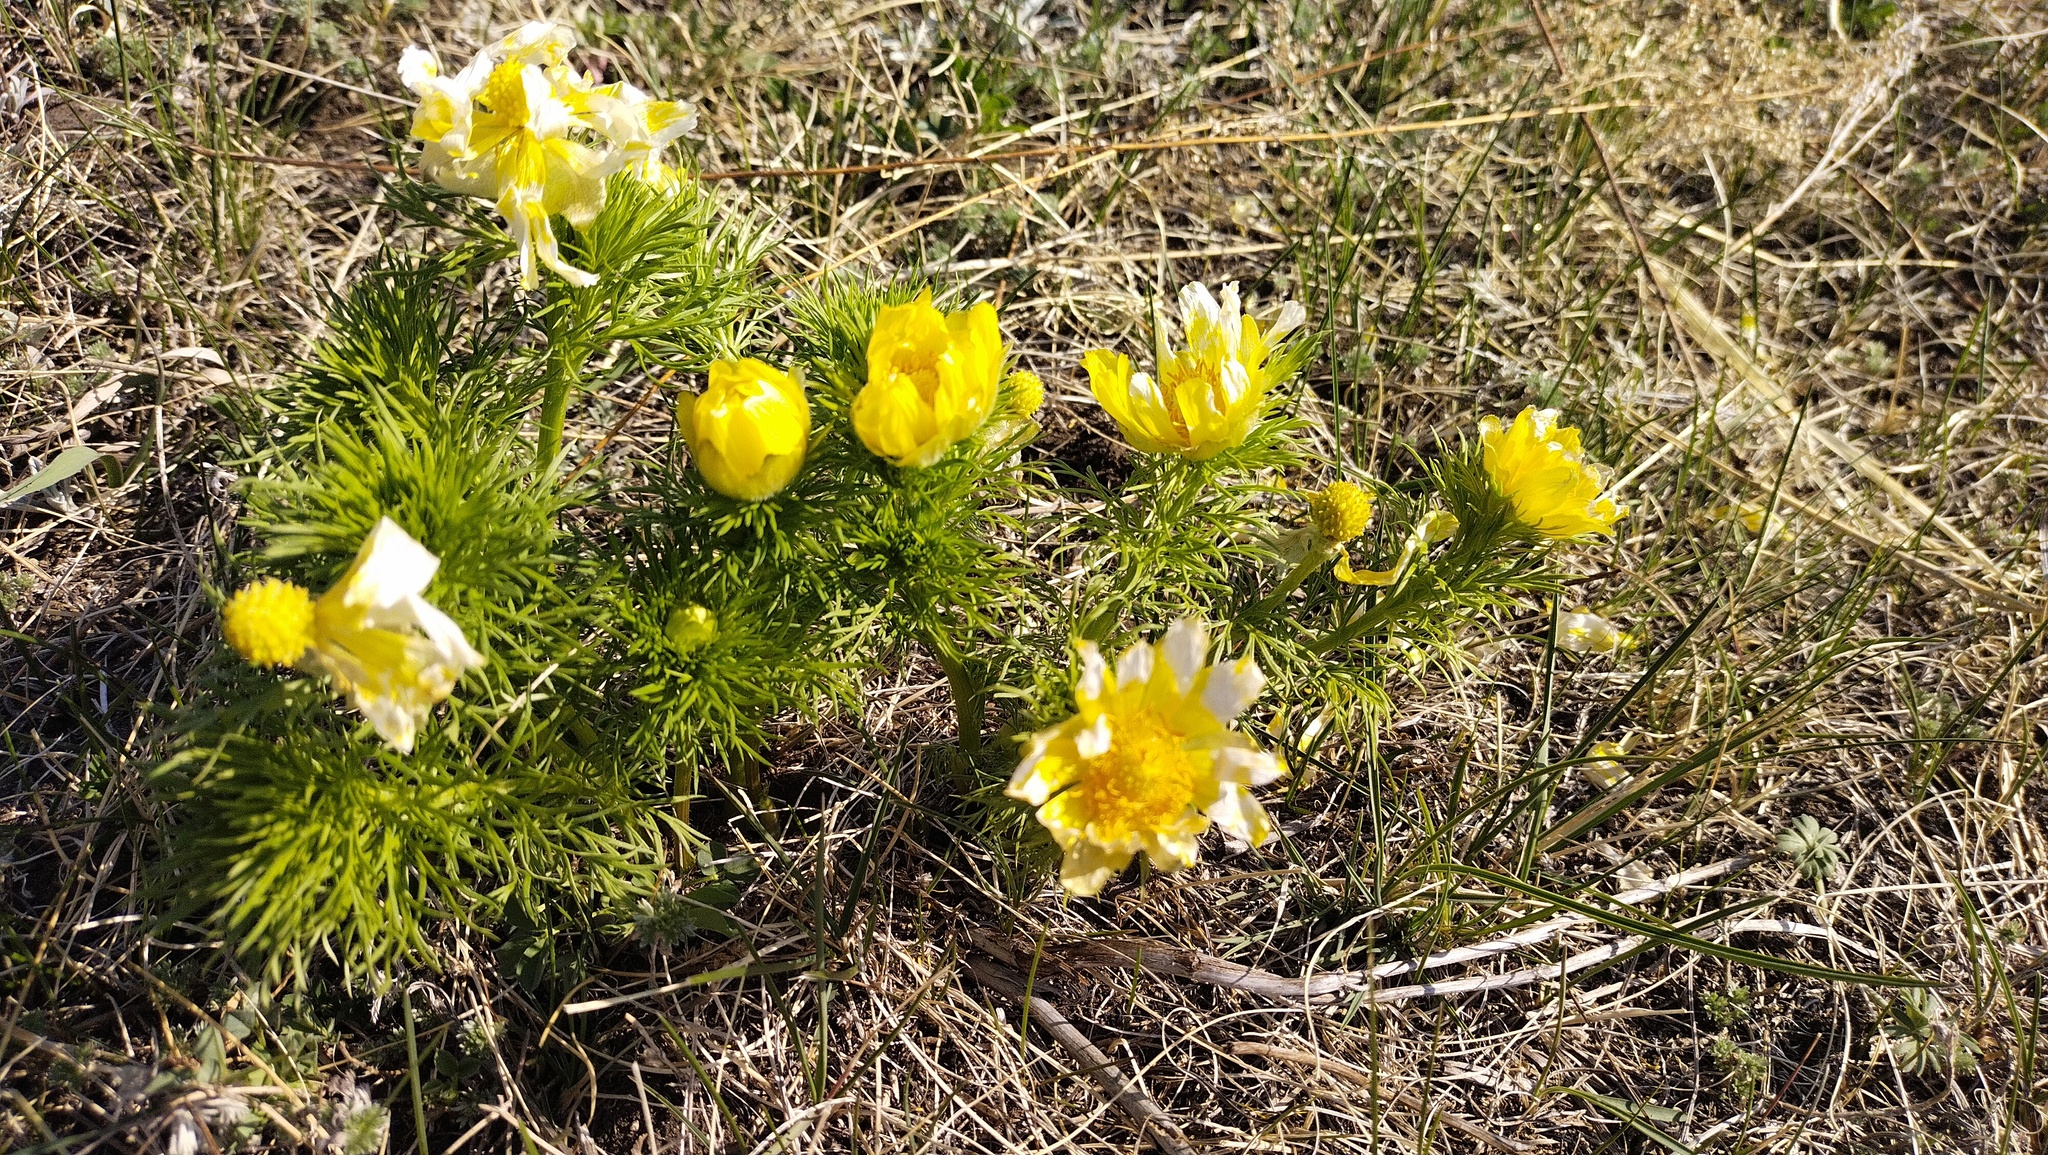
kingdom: Plantae
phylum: Tracheophyta
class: Magnoliopsida
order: Ranunculales
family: Ranunculaceae
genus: Adonis
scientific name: Adonis vernalis
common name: Yellow pheasants-eye
